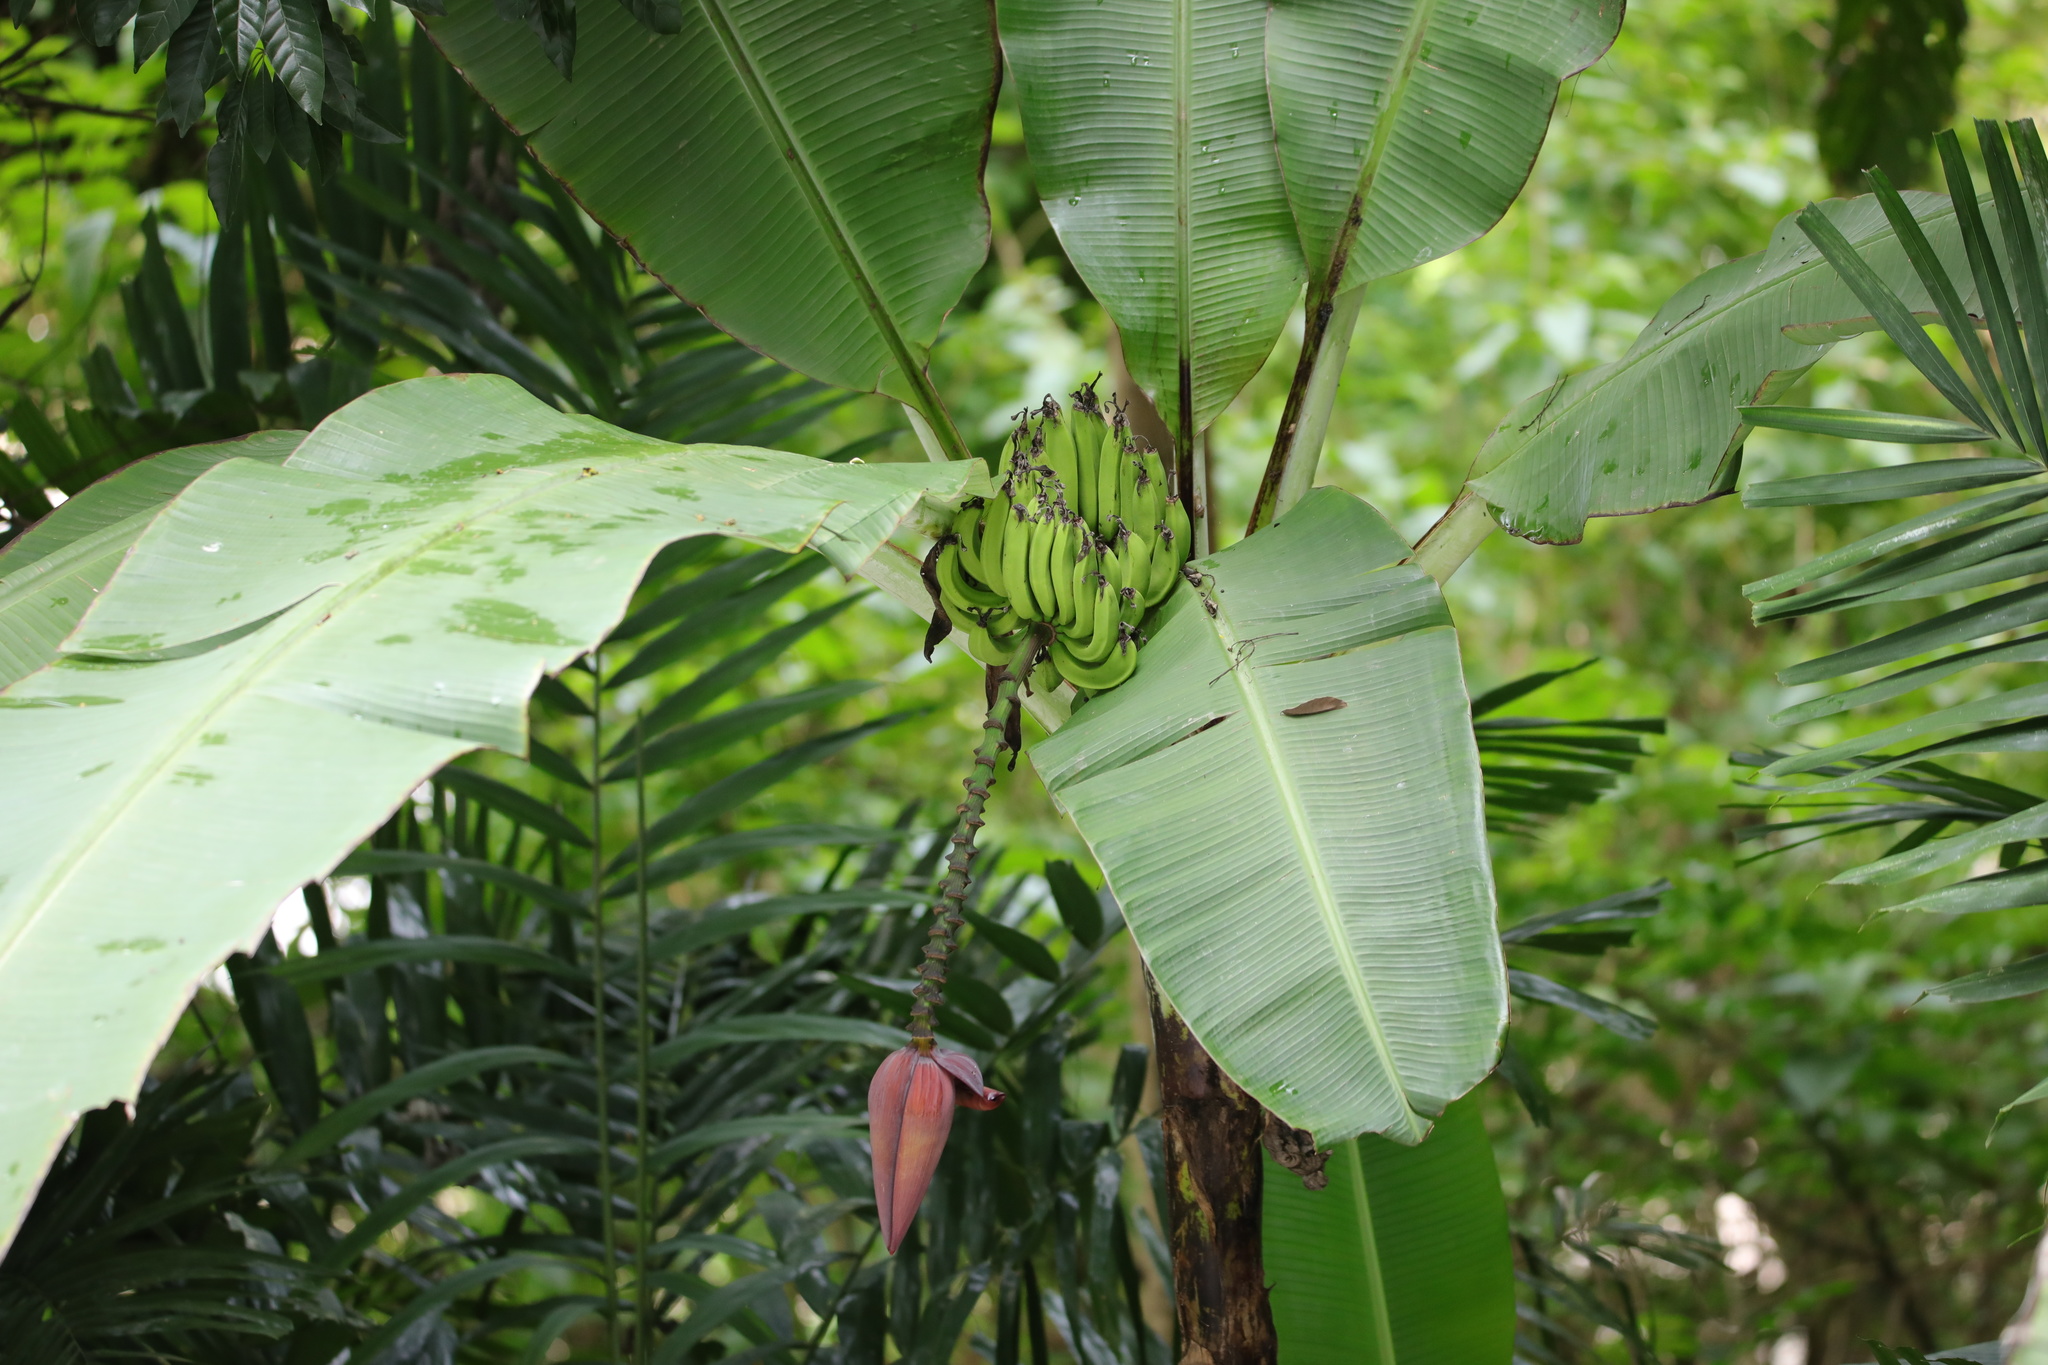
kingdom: Plantae
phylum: Tracheophyta
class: Liliopsida
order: Zingiberales
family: Musaceae
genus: Musa
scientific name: Musa acuminata
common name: Edible banana
